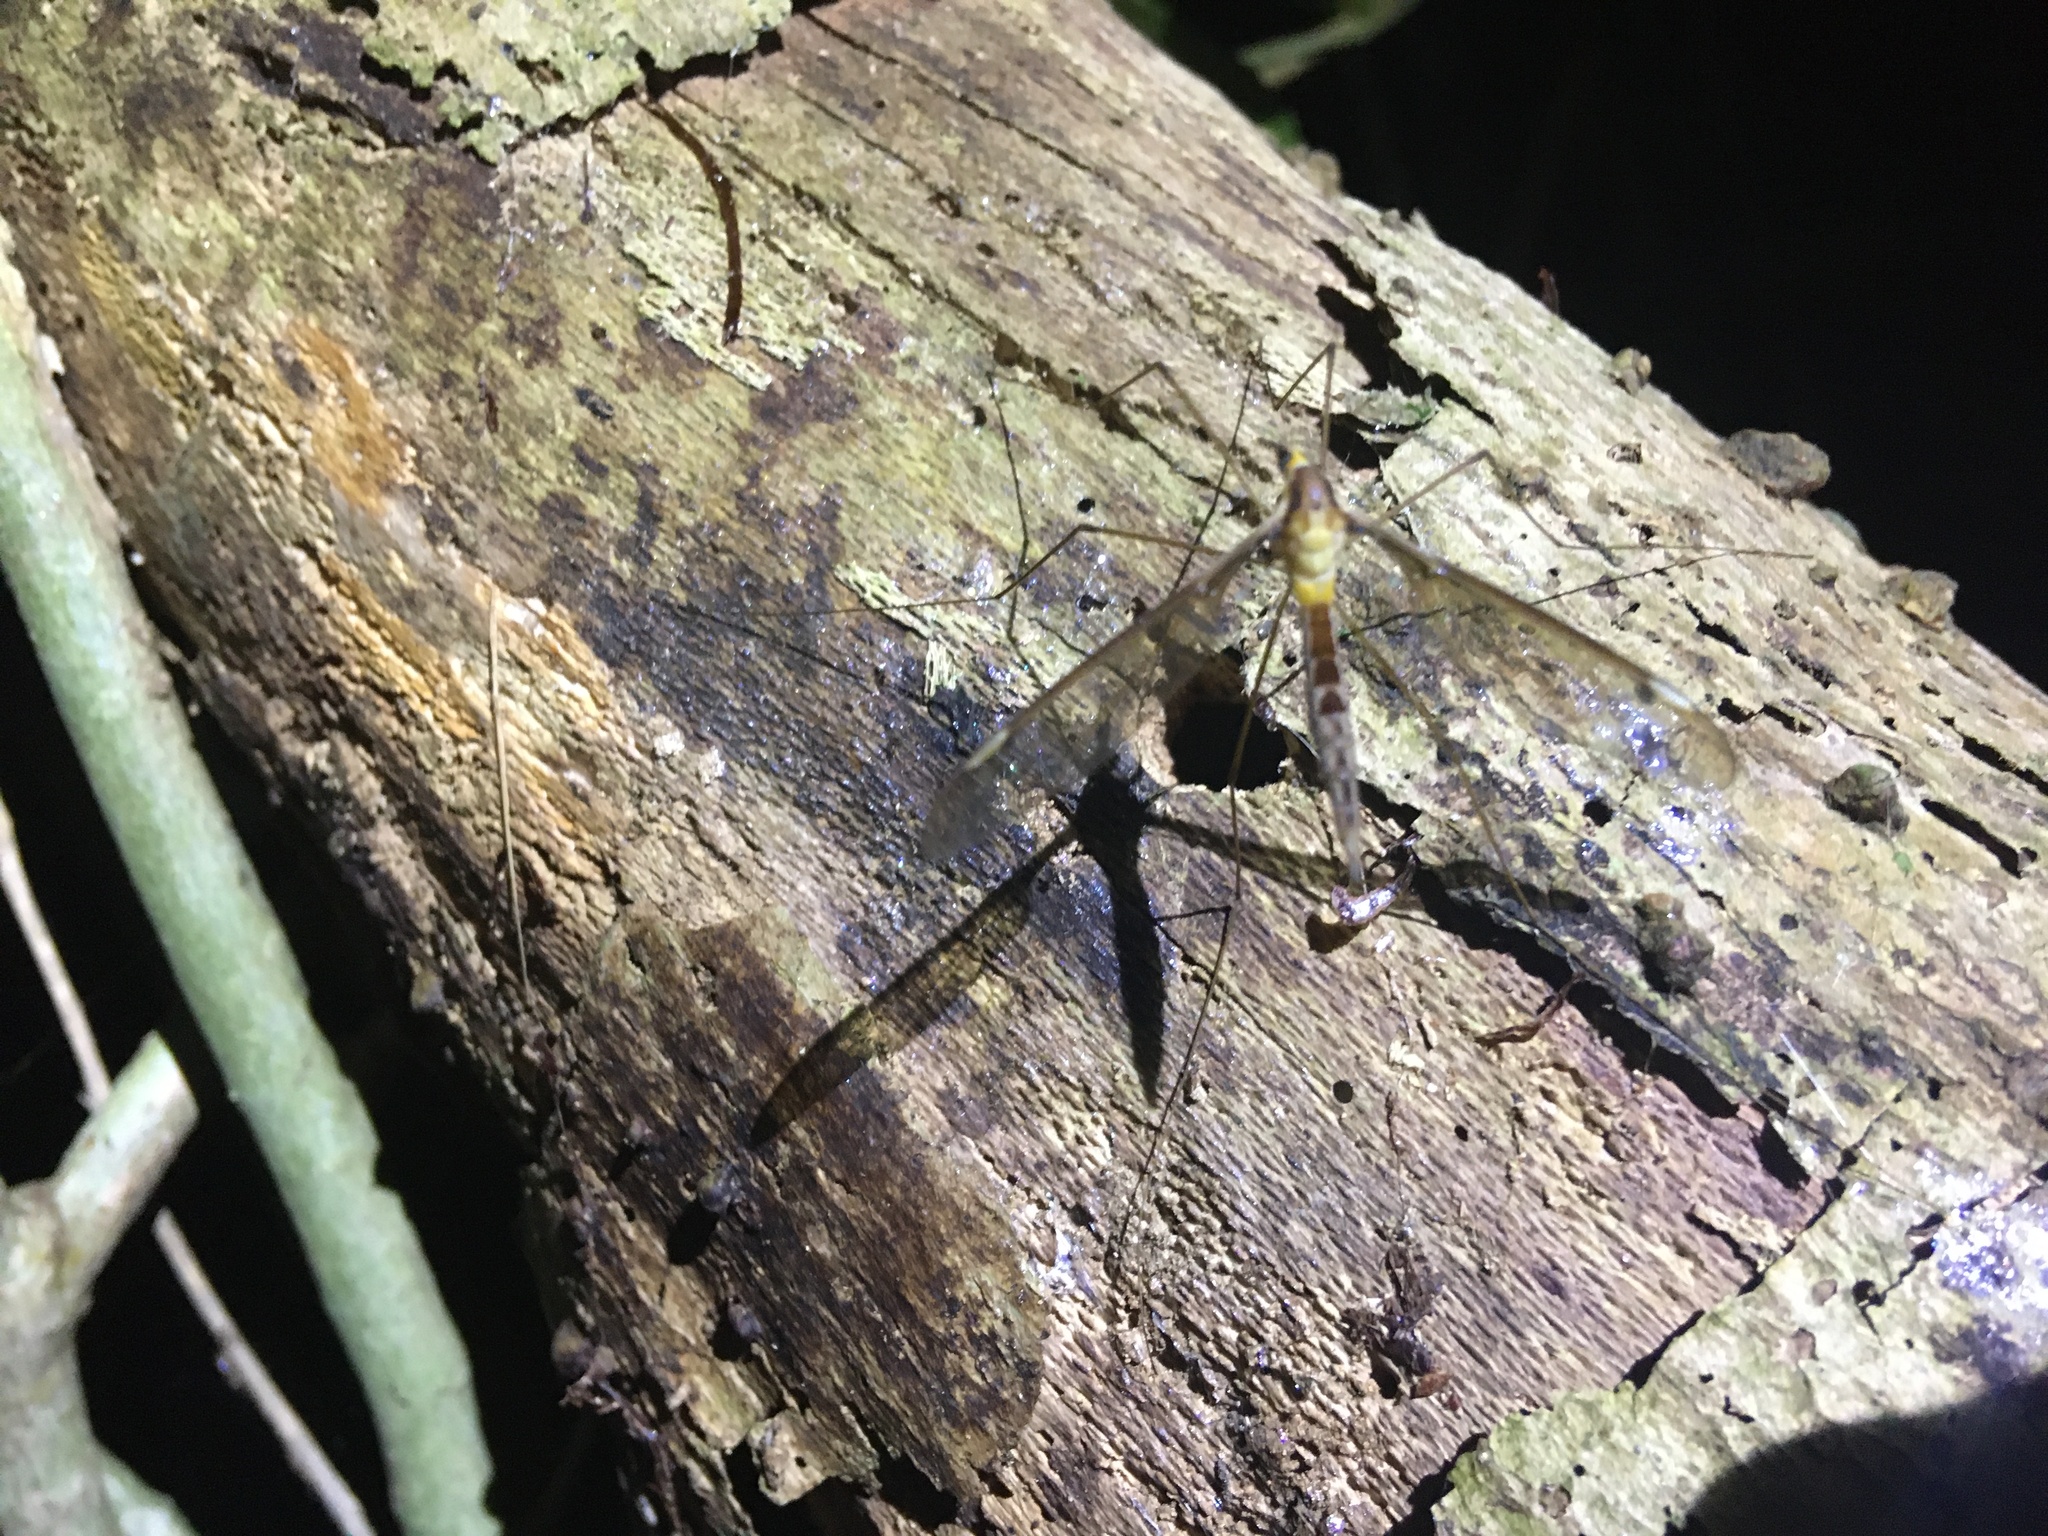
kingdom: Animalia
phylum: Arthropoda
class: Insecta
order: Diptera
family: Tipulidae
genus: Leptotarsus
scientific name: Leptotarsus albistigma
